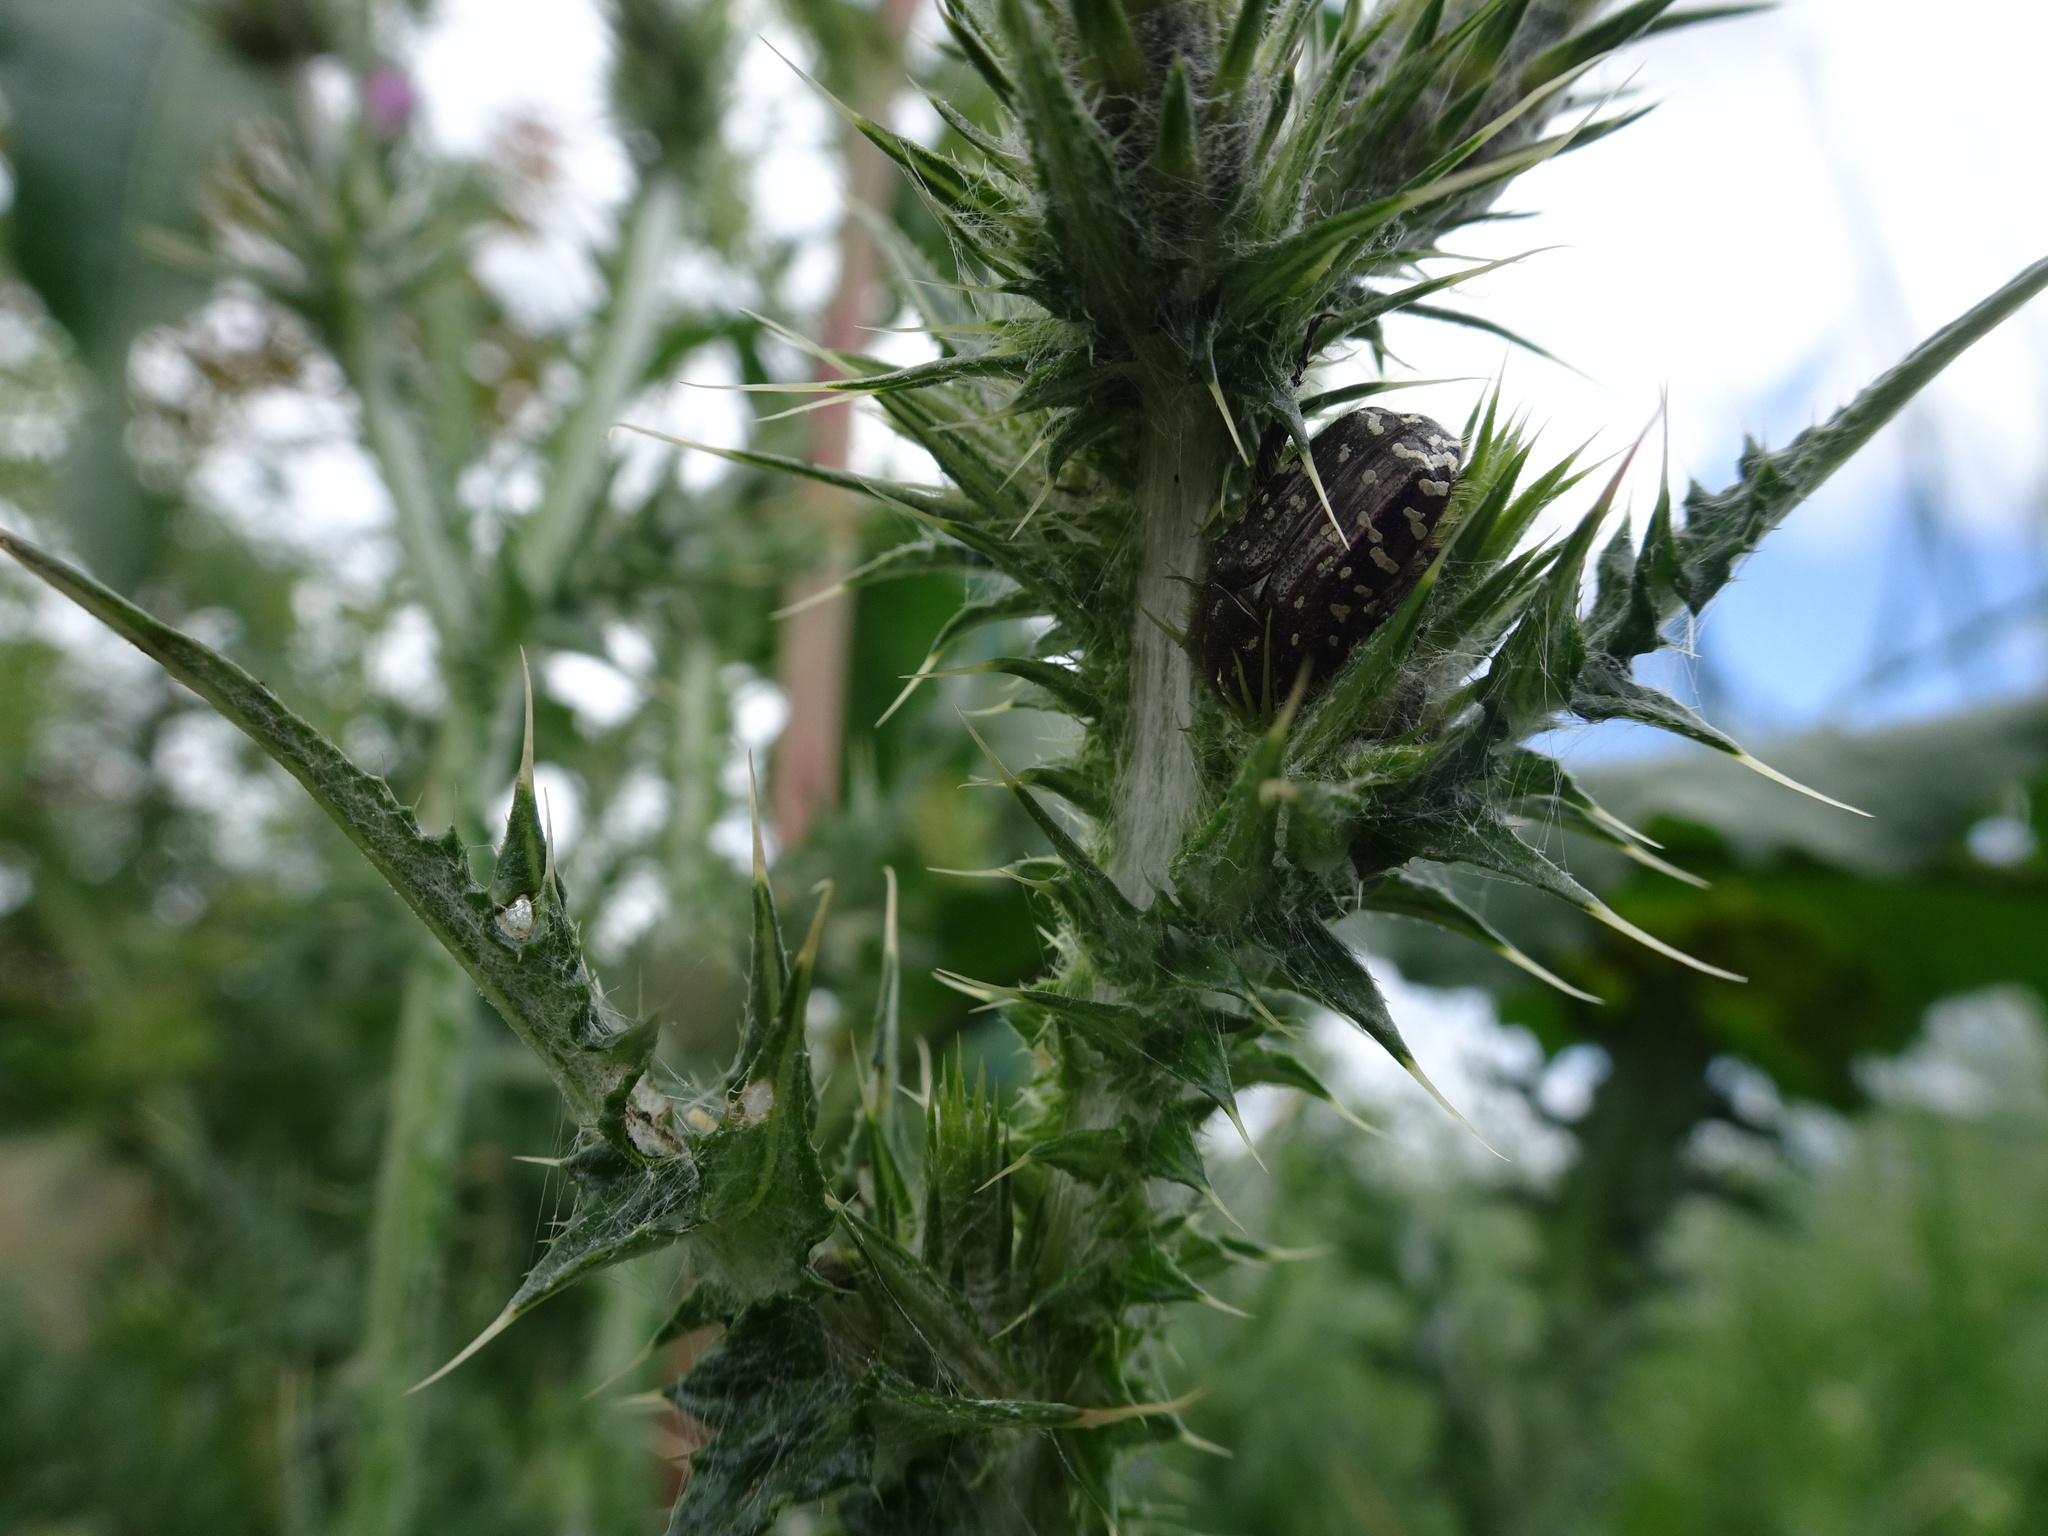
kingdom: Animalia
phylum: Arthropoda
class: Insecta
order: Coleoptera
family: Scarabaeidae
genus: Oxythyrea
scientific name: Oxythyrea funesta
